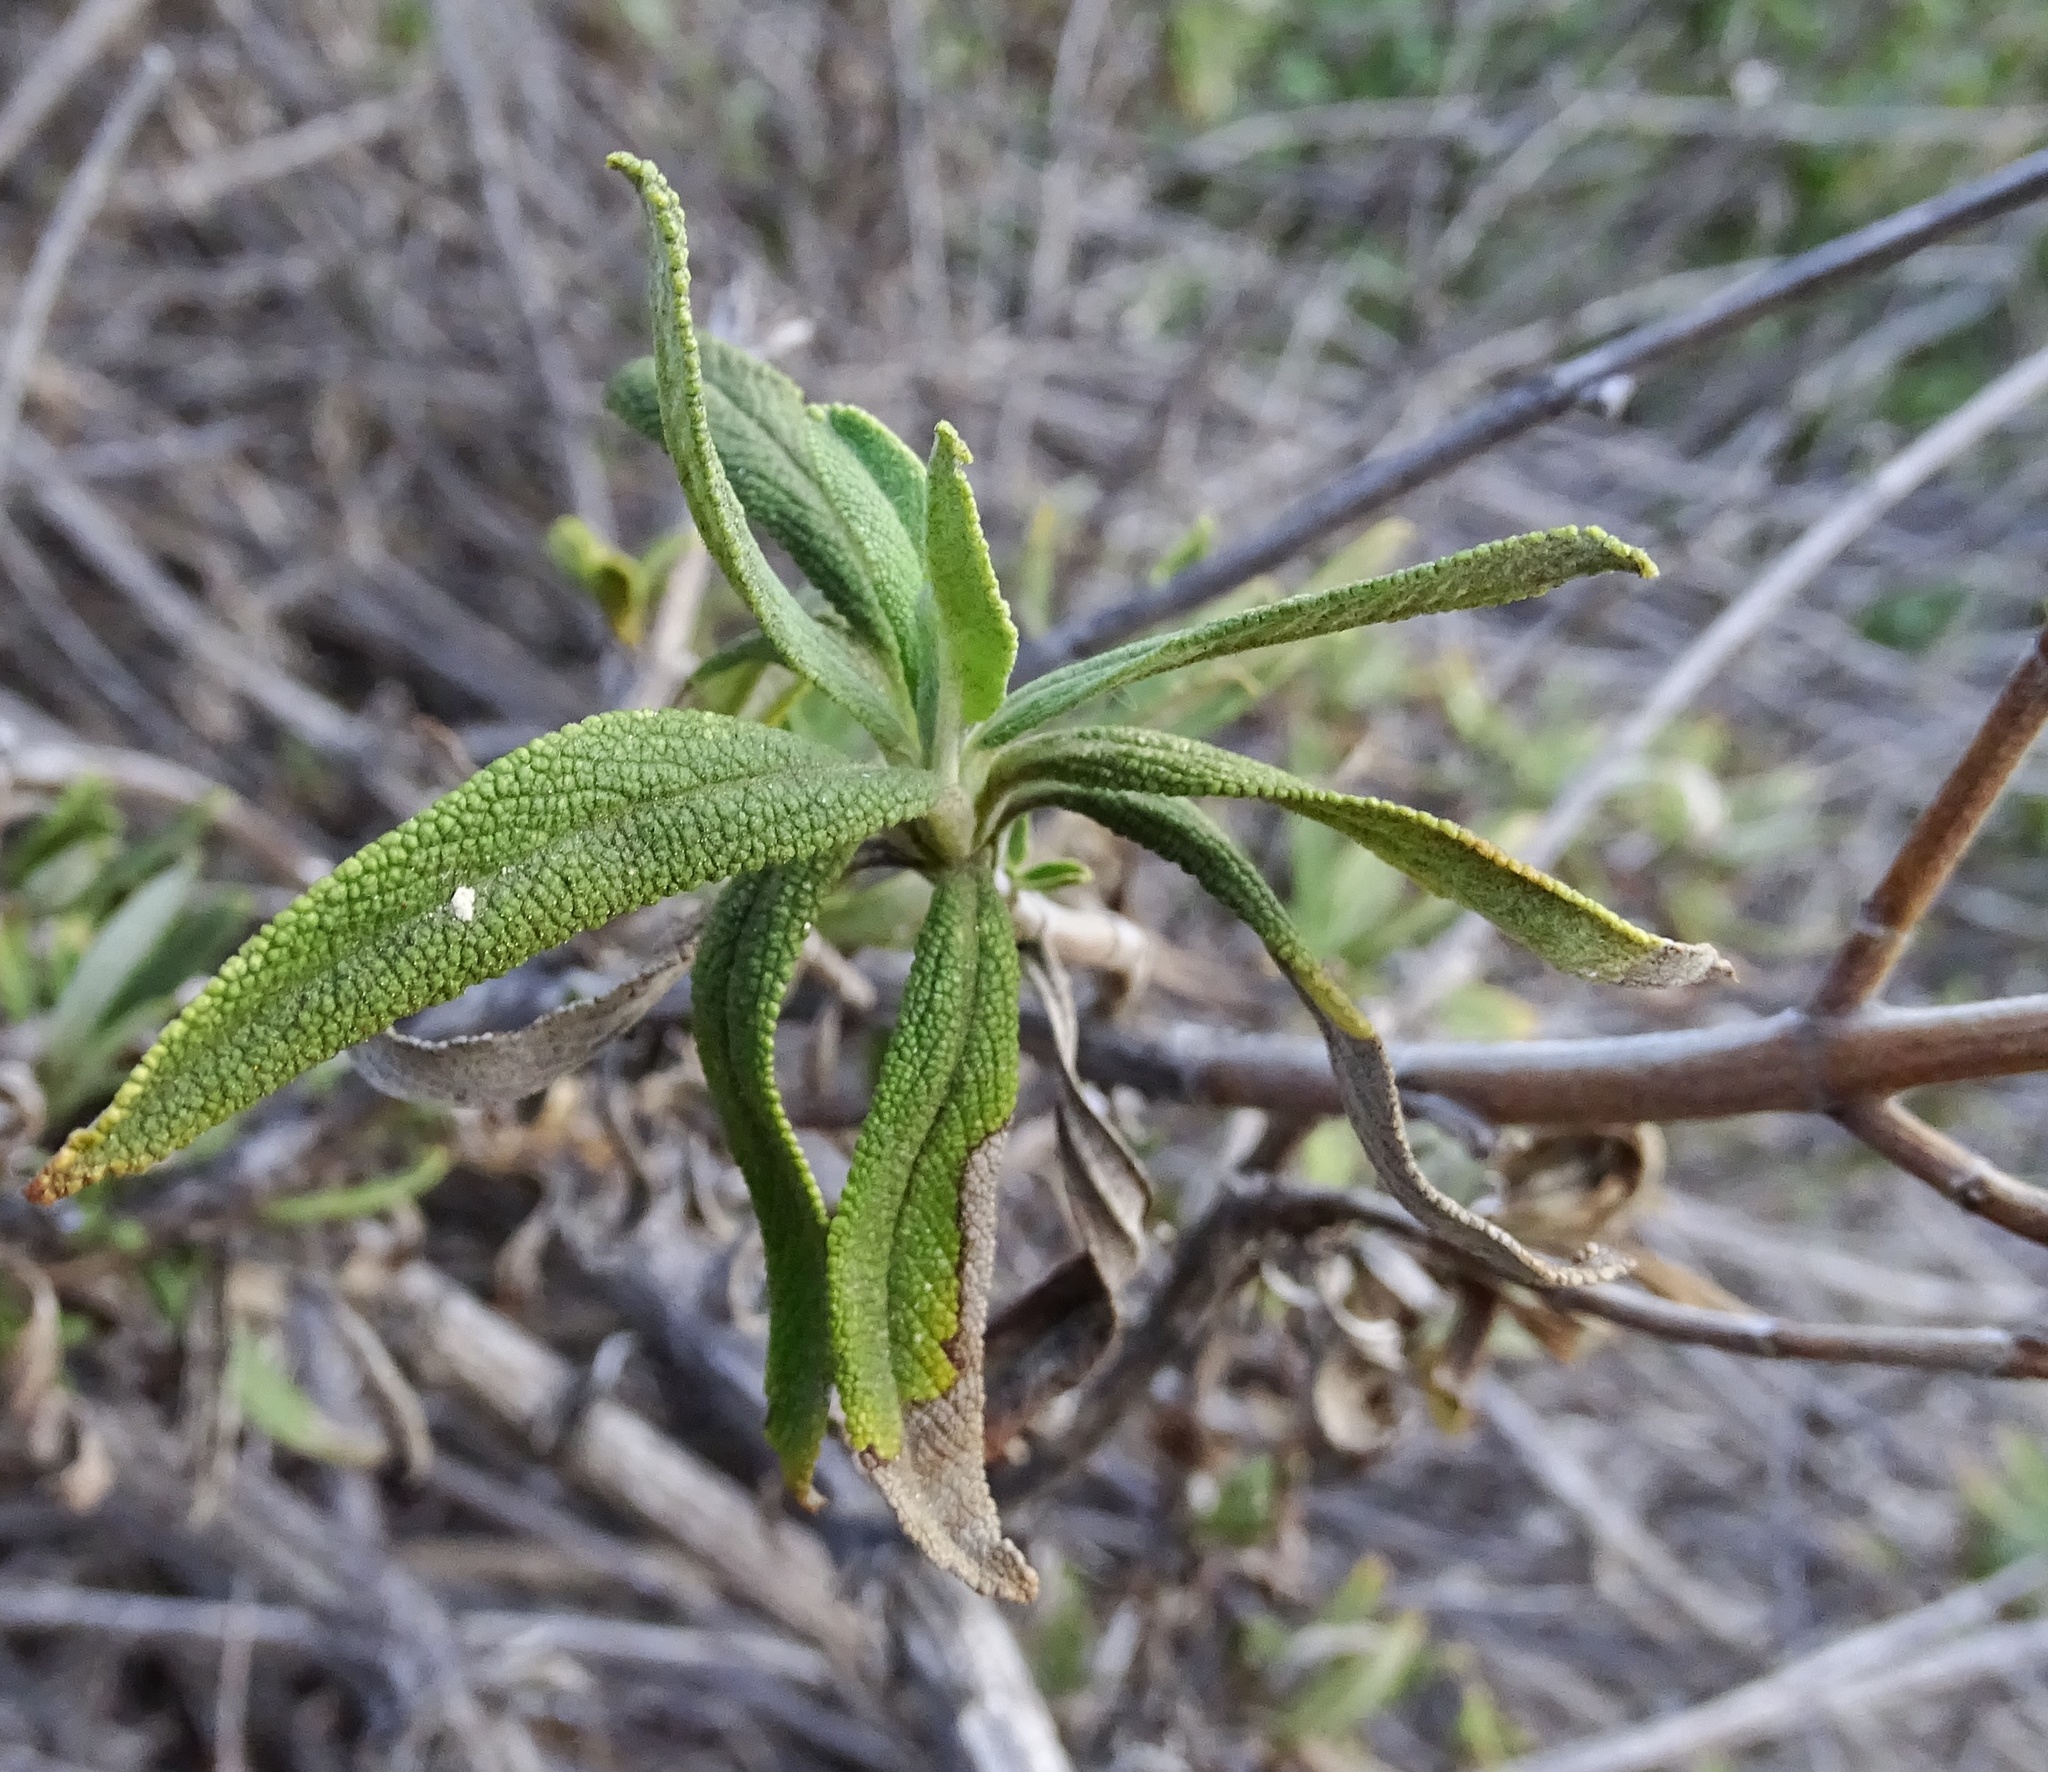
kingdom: Plantae
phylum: Tracheophyta
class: Magnoliopsida
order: Lamiales
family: Lamiaceae
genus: Salvia
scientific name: Salvia mellifera
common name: Black sage
